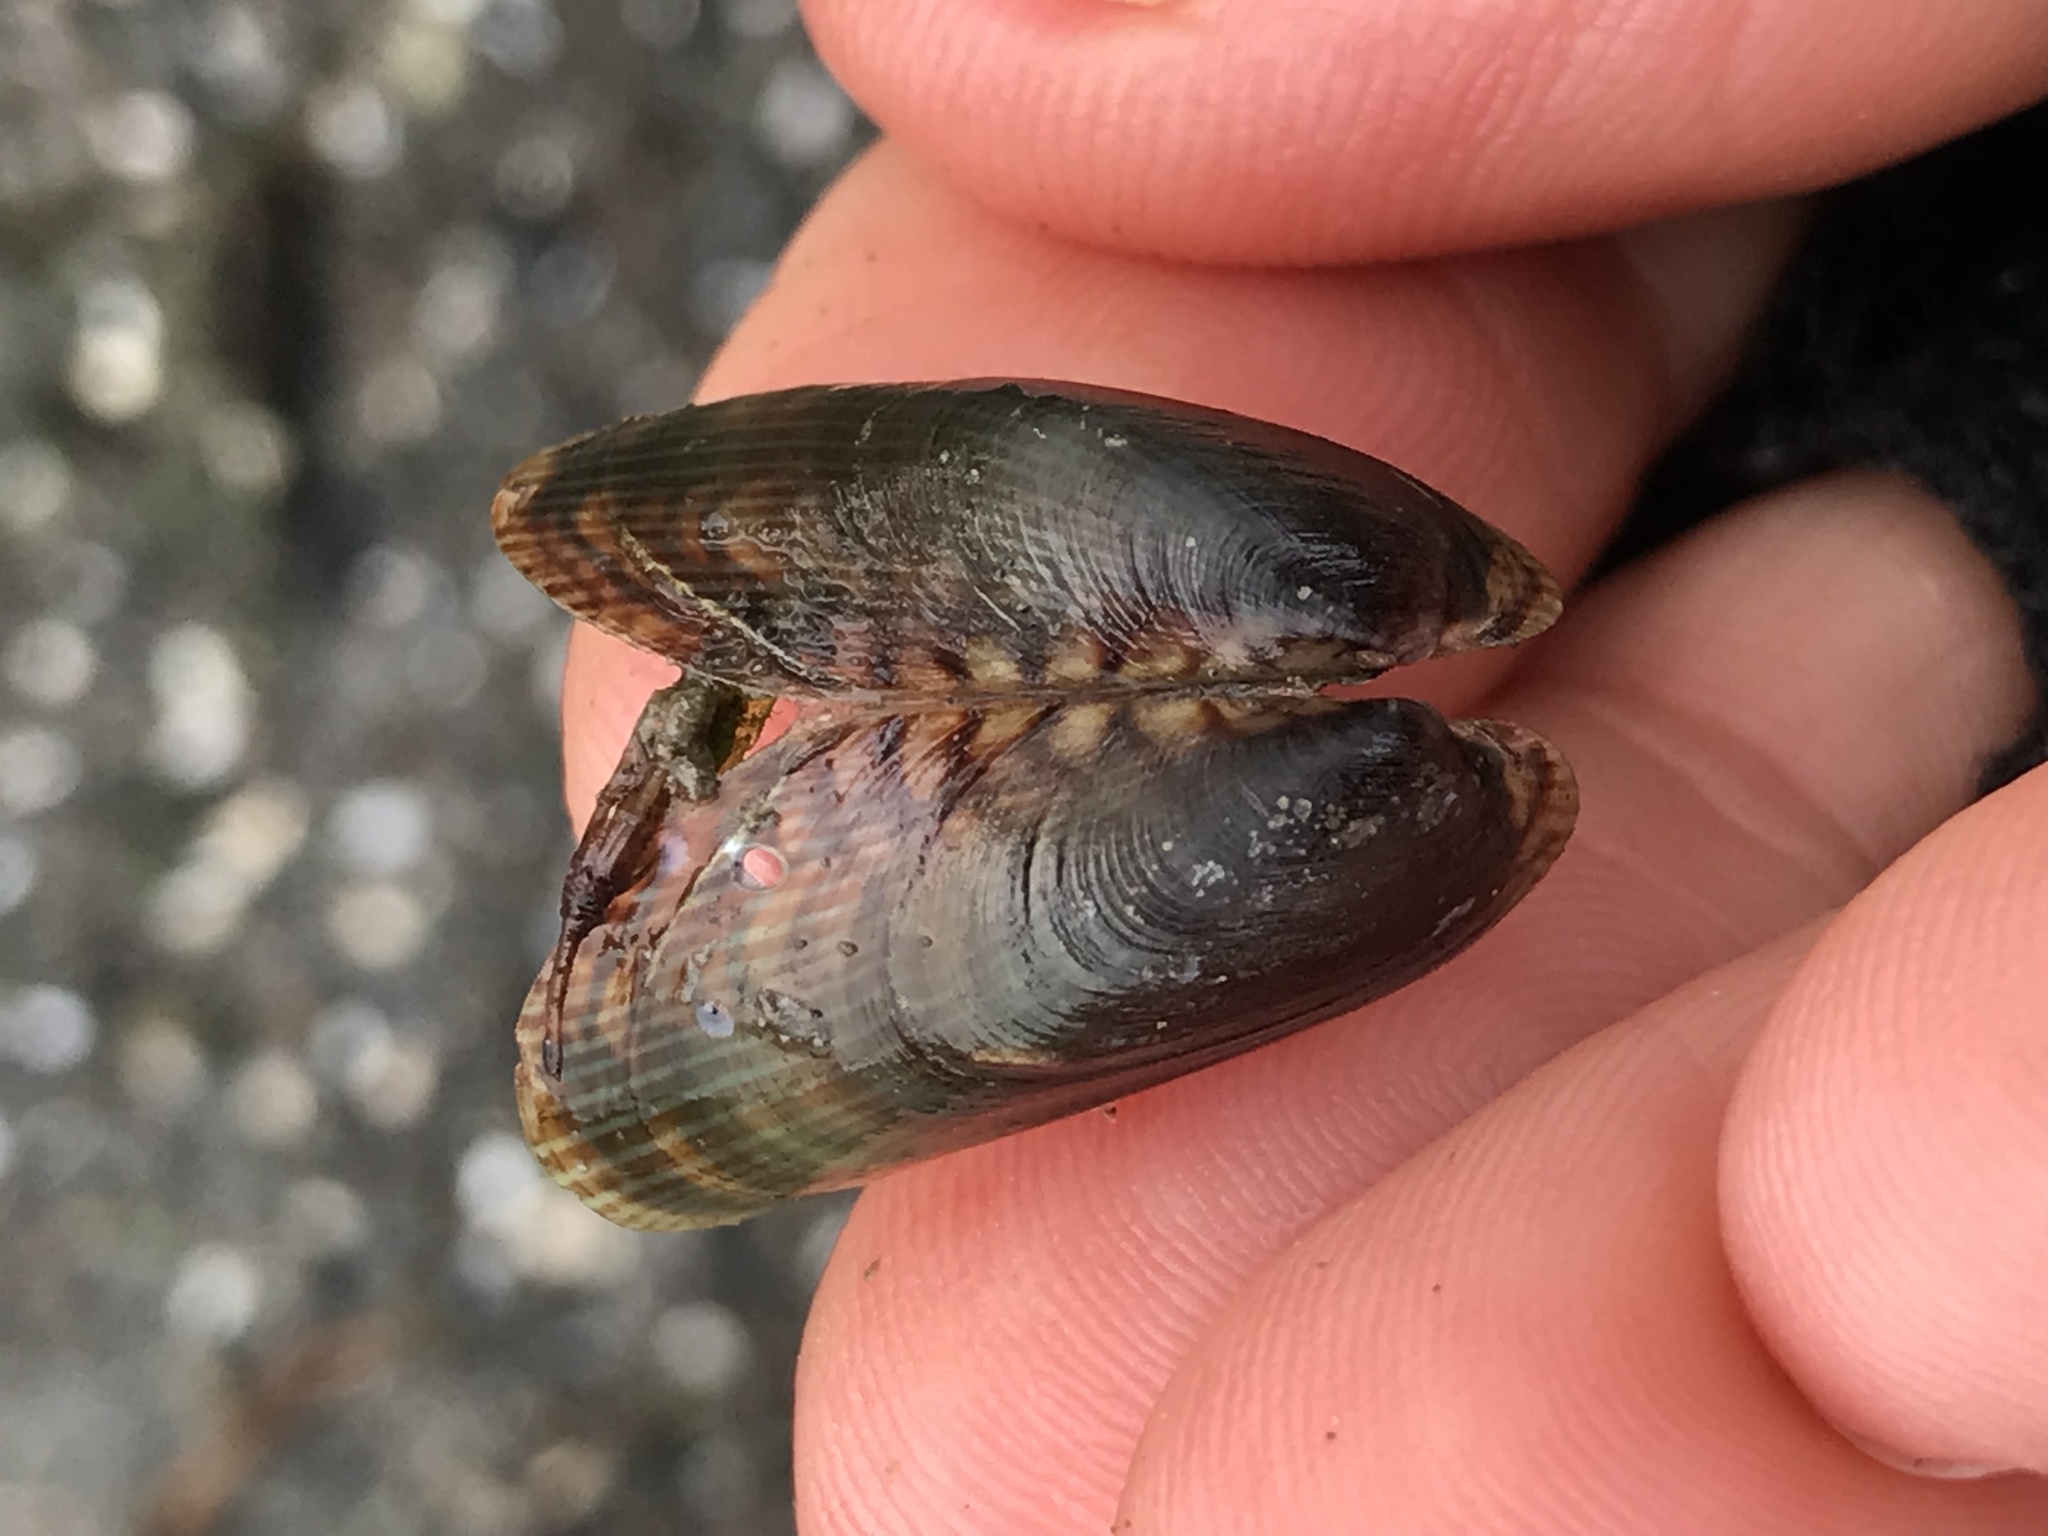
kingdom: Animalia
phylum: Mollusca
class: Bivalvia
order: Mytilida
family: Mytilidae
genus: Arcuatula
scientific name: Arcuatula senhousia
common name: Asian mussel
